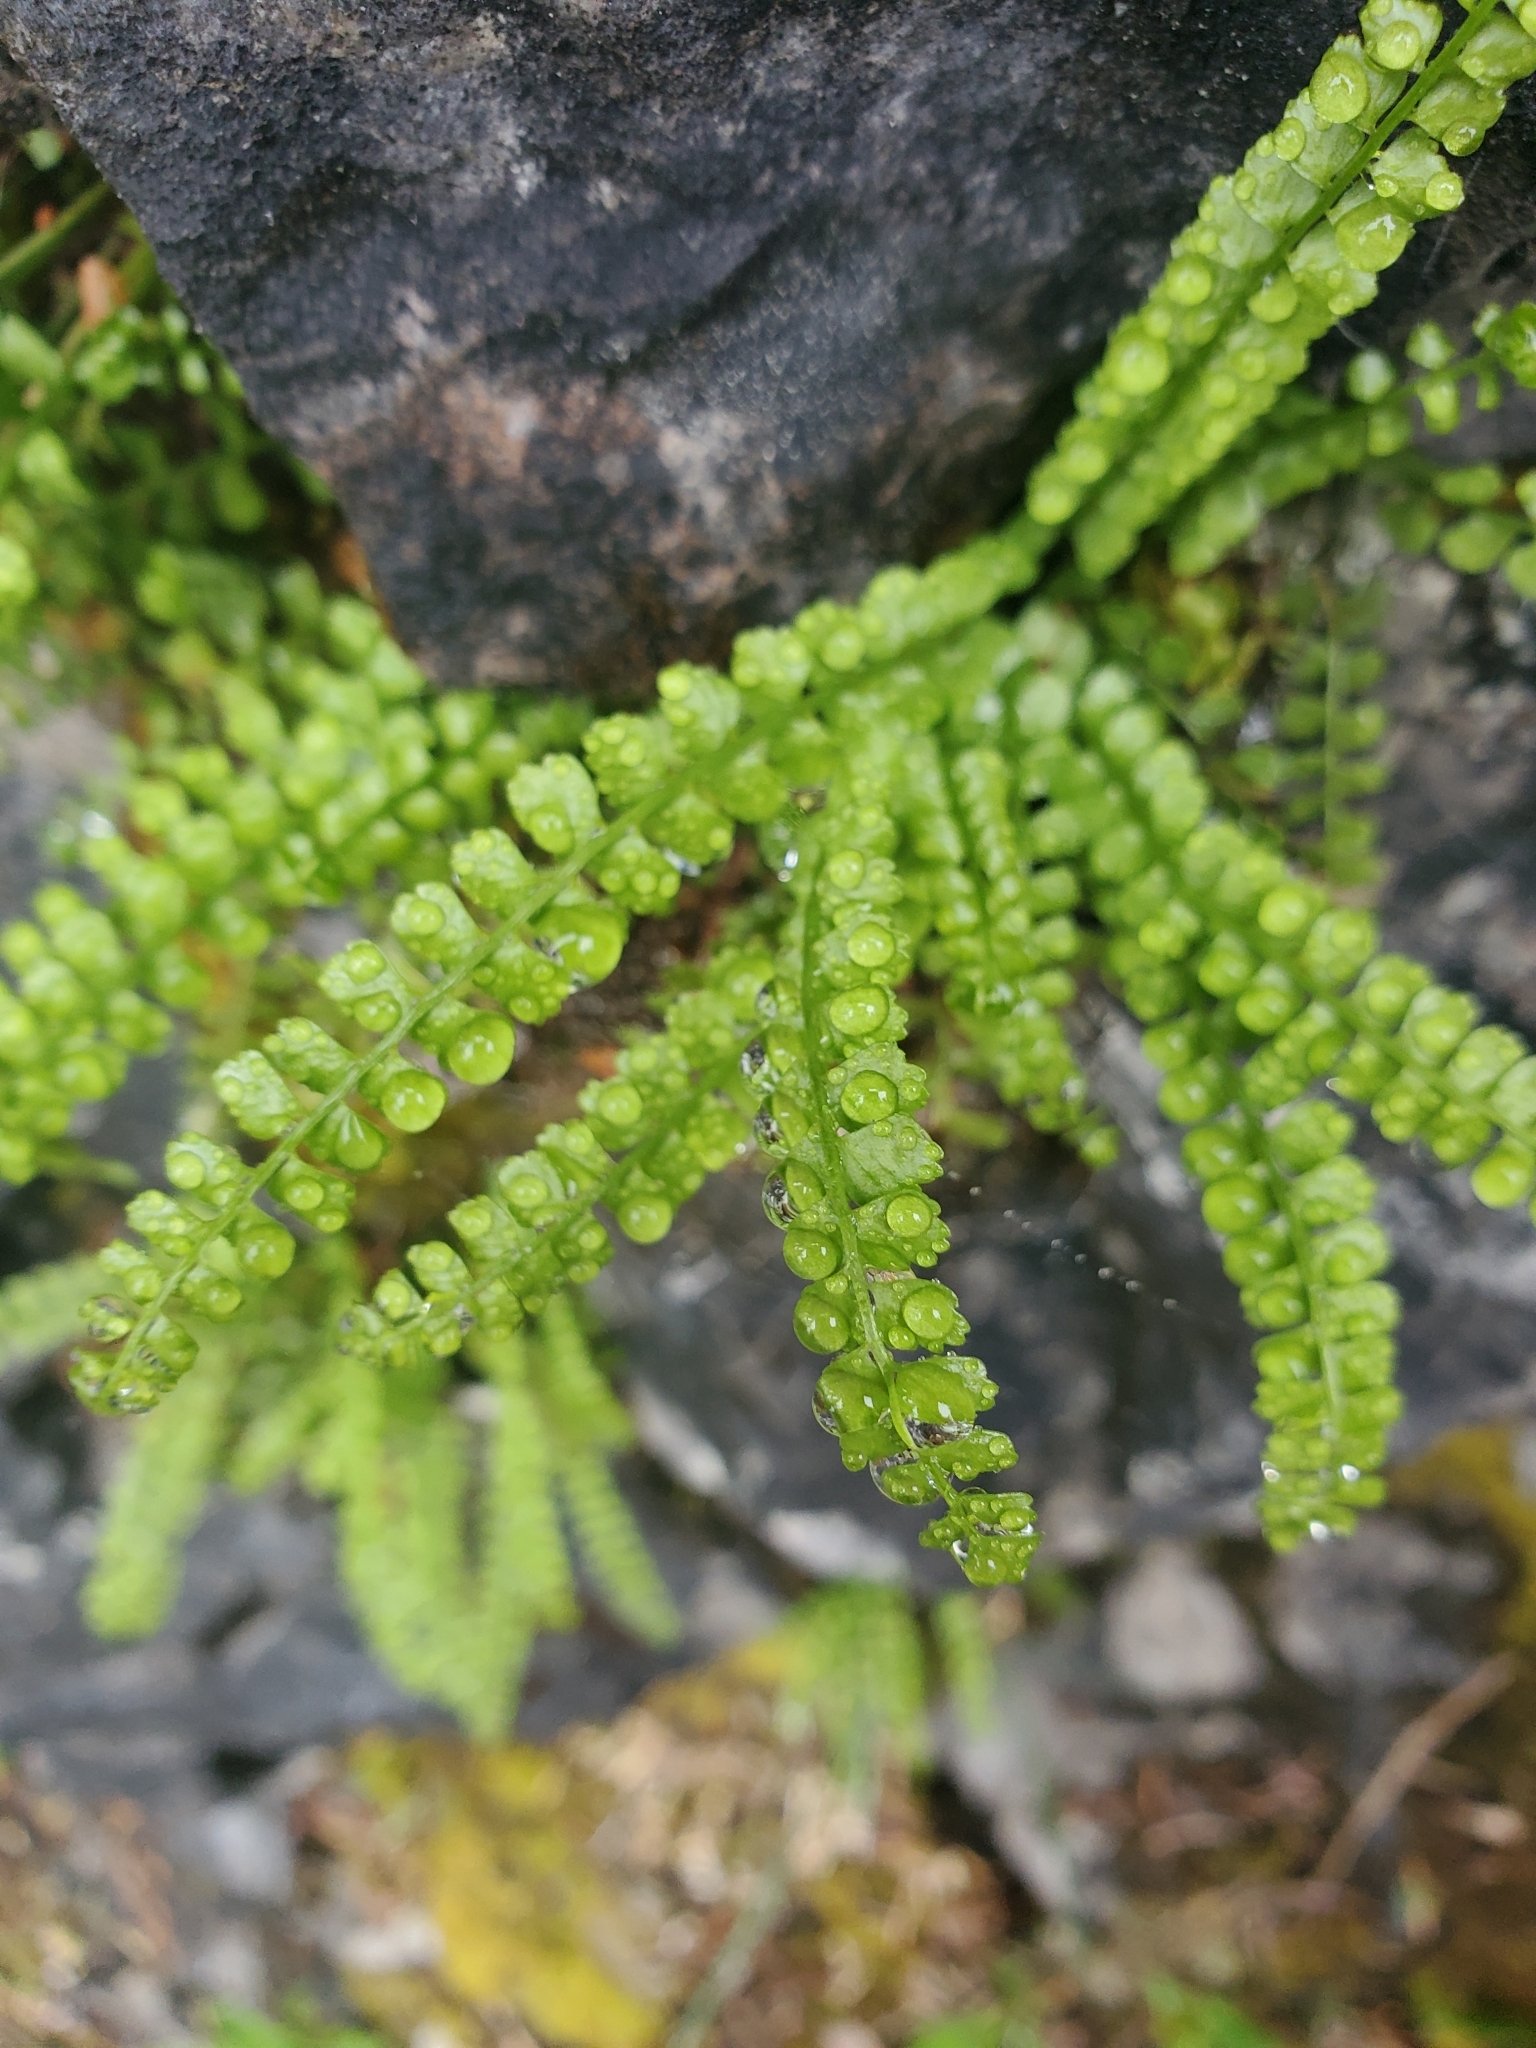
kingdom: Plantae
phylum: Tracheophyta
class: Polypodiopsida
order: Polypodiales
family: Aspleniaceae
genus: Asplenium
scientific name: Asplenium viride
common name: Green spleenwort
